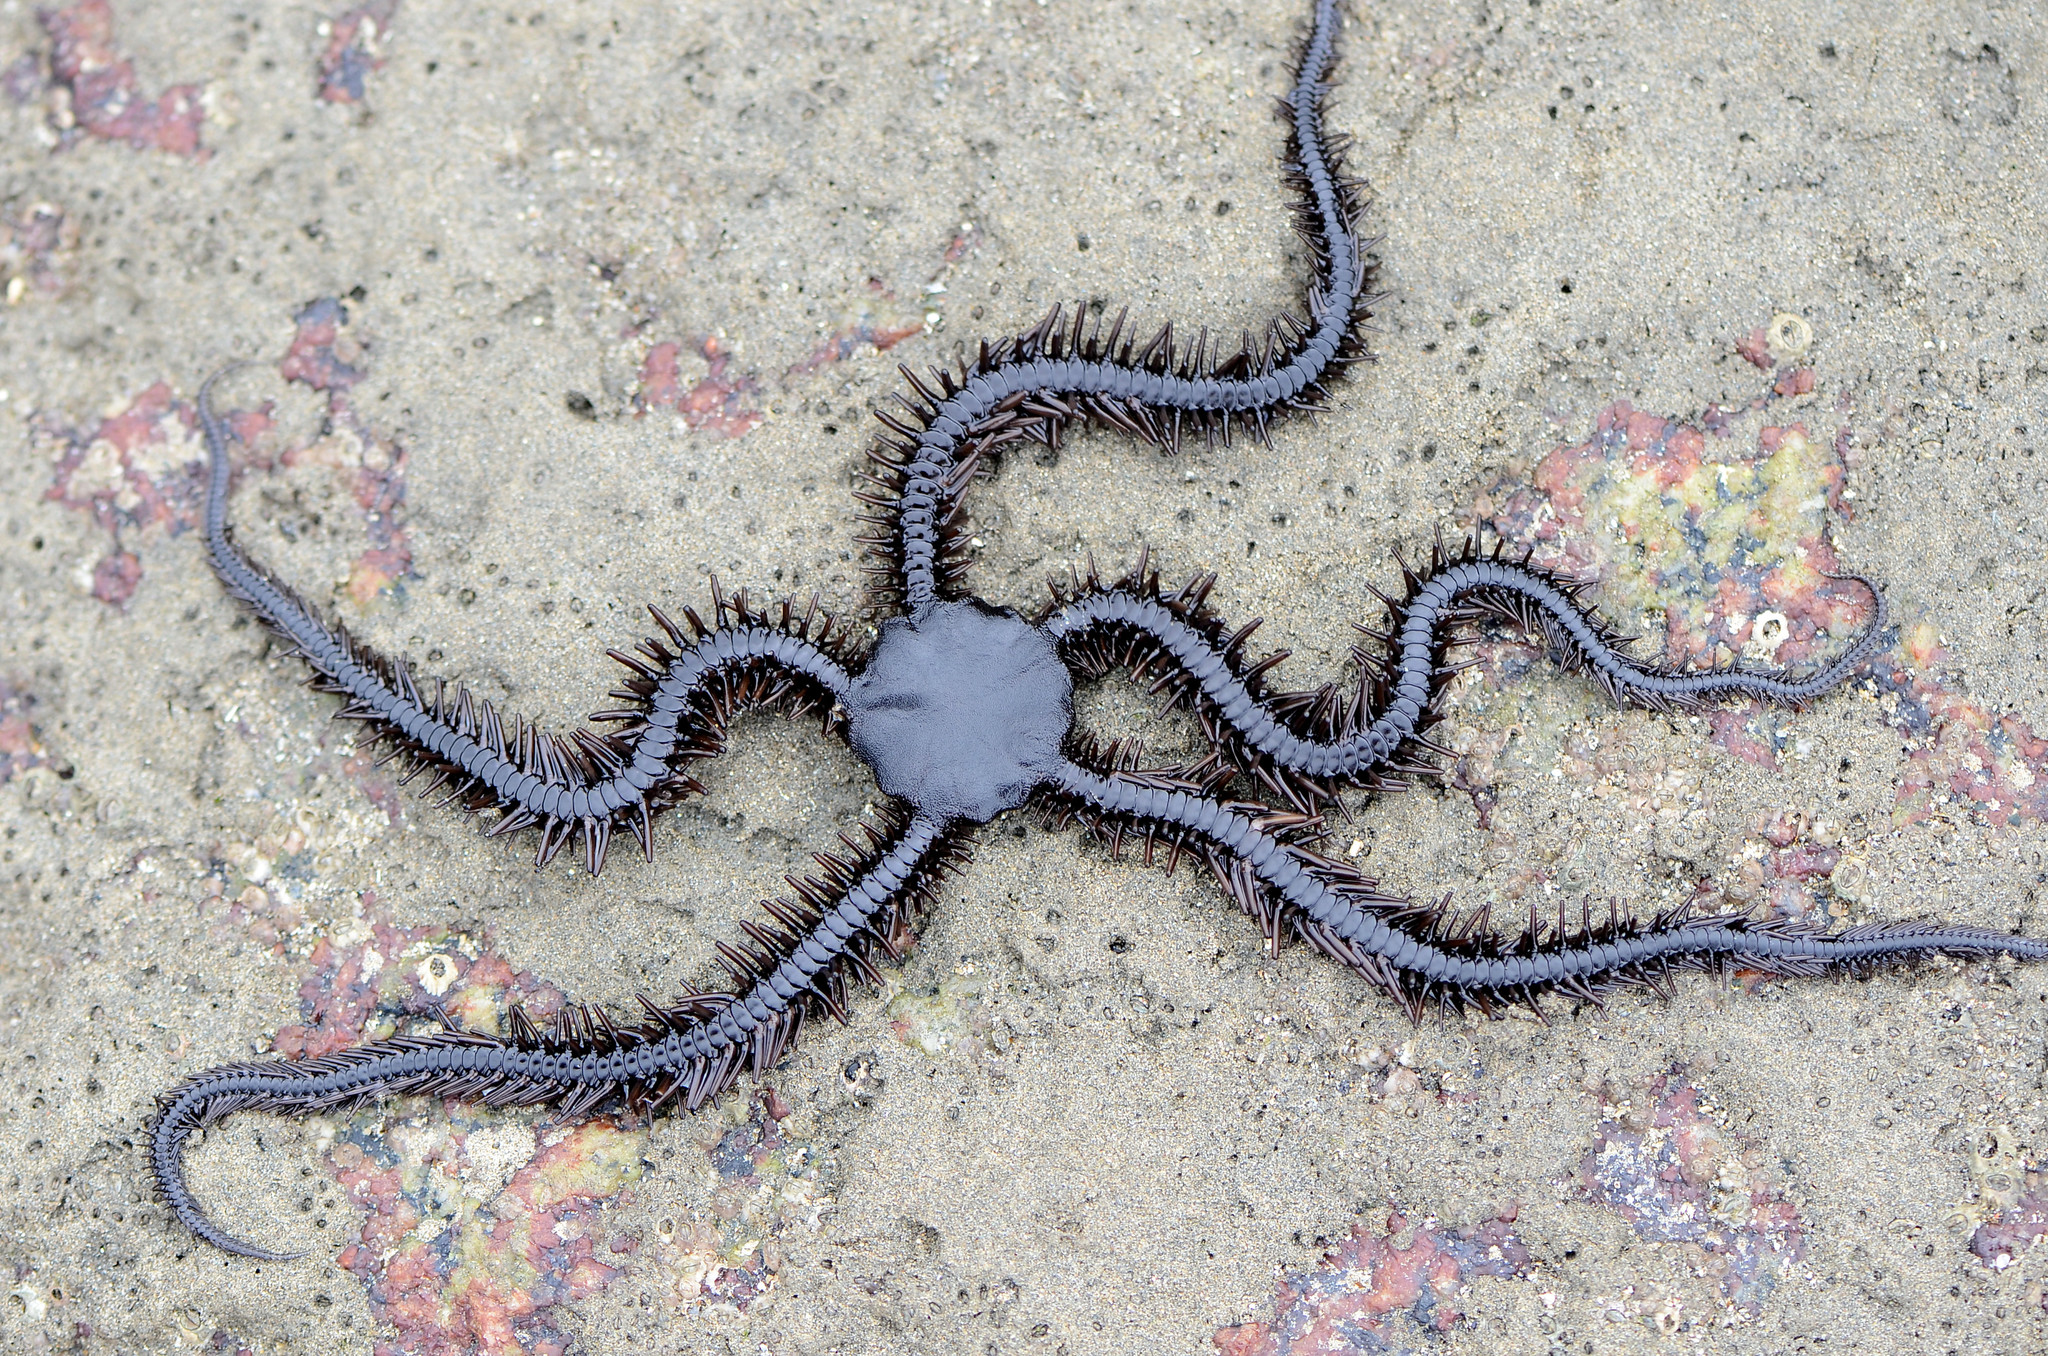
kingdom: Animalia
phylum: Echinodermata
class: Ophiuroidea
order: Ophiacanthida
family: Ophiocomidae
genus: Ophiocoma
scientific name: Ophiocoma aethiops
